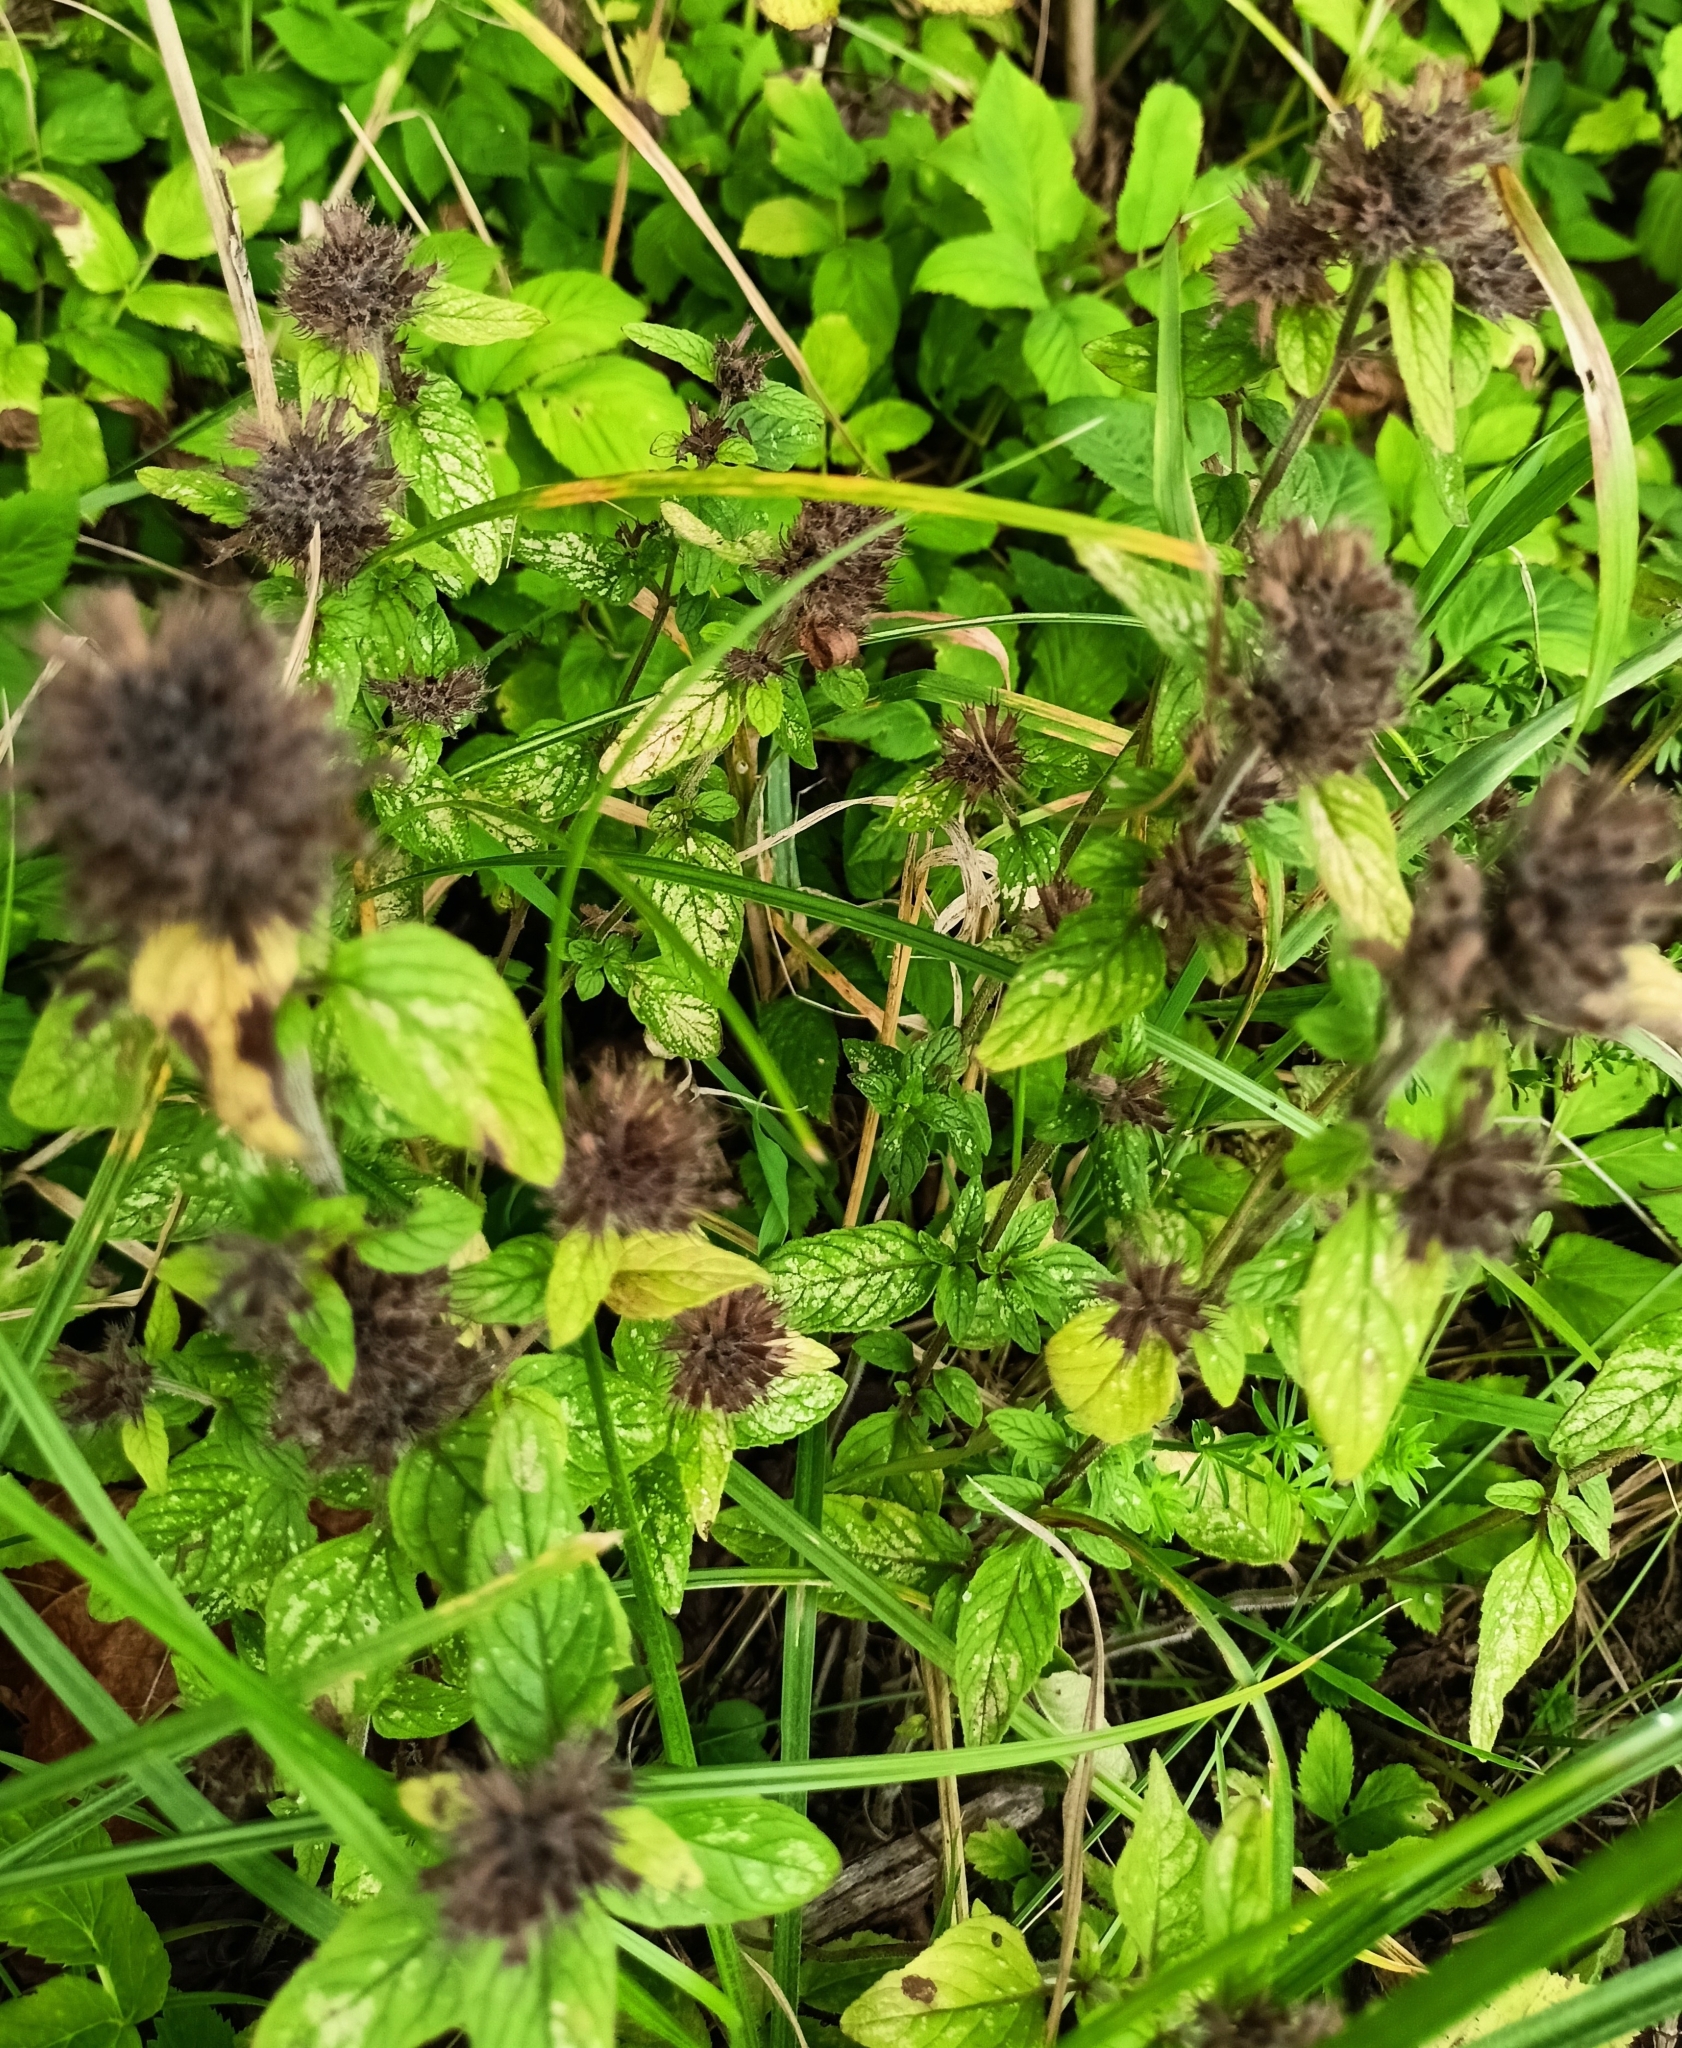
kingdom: Plantae
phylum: Tracheophyta
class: Magnoliopsida
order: Lamiales
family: Lamiaceae
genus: Clinopodium
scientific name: Clinopodium vulgare
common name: Wild basil
